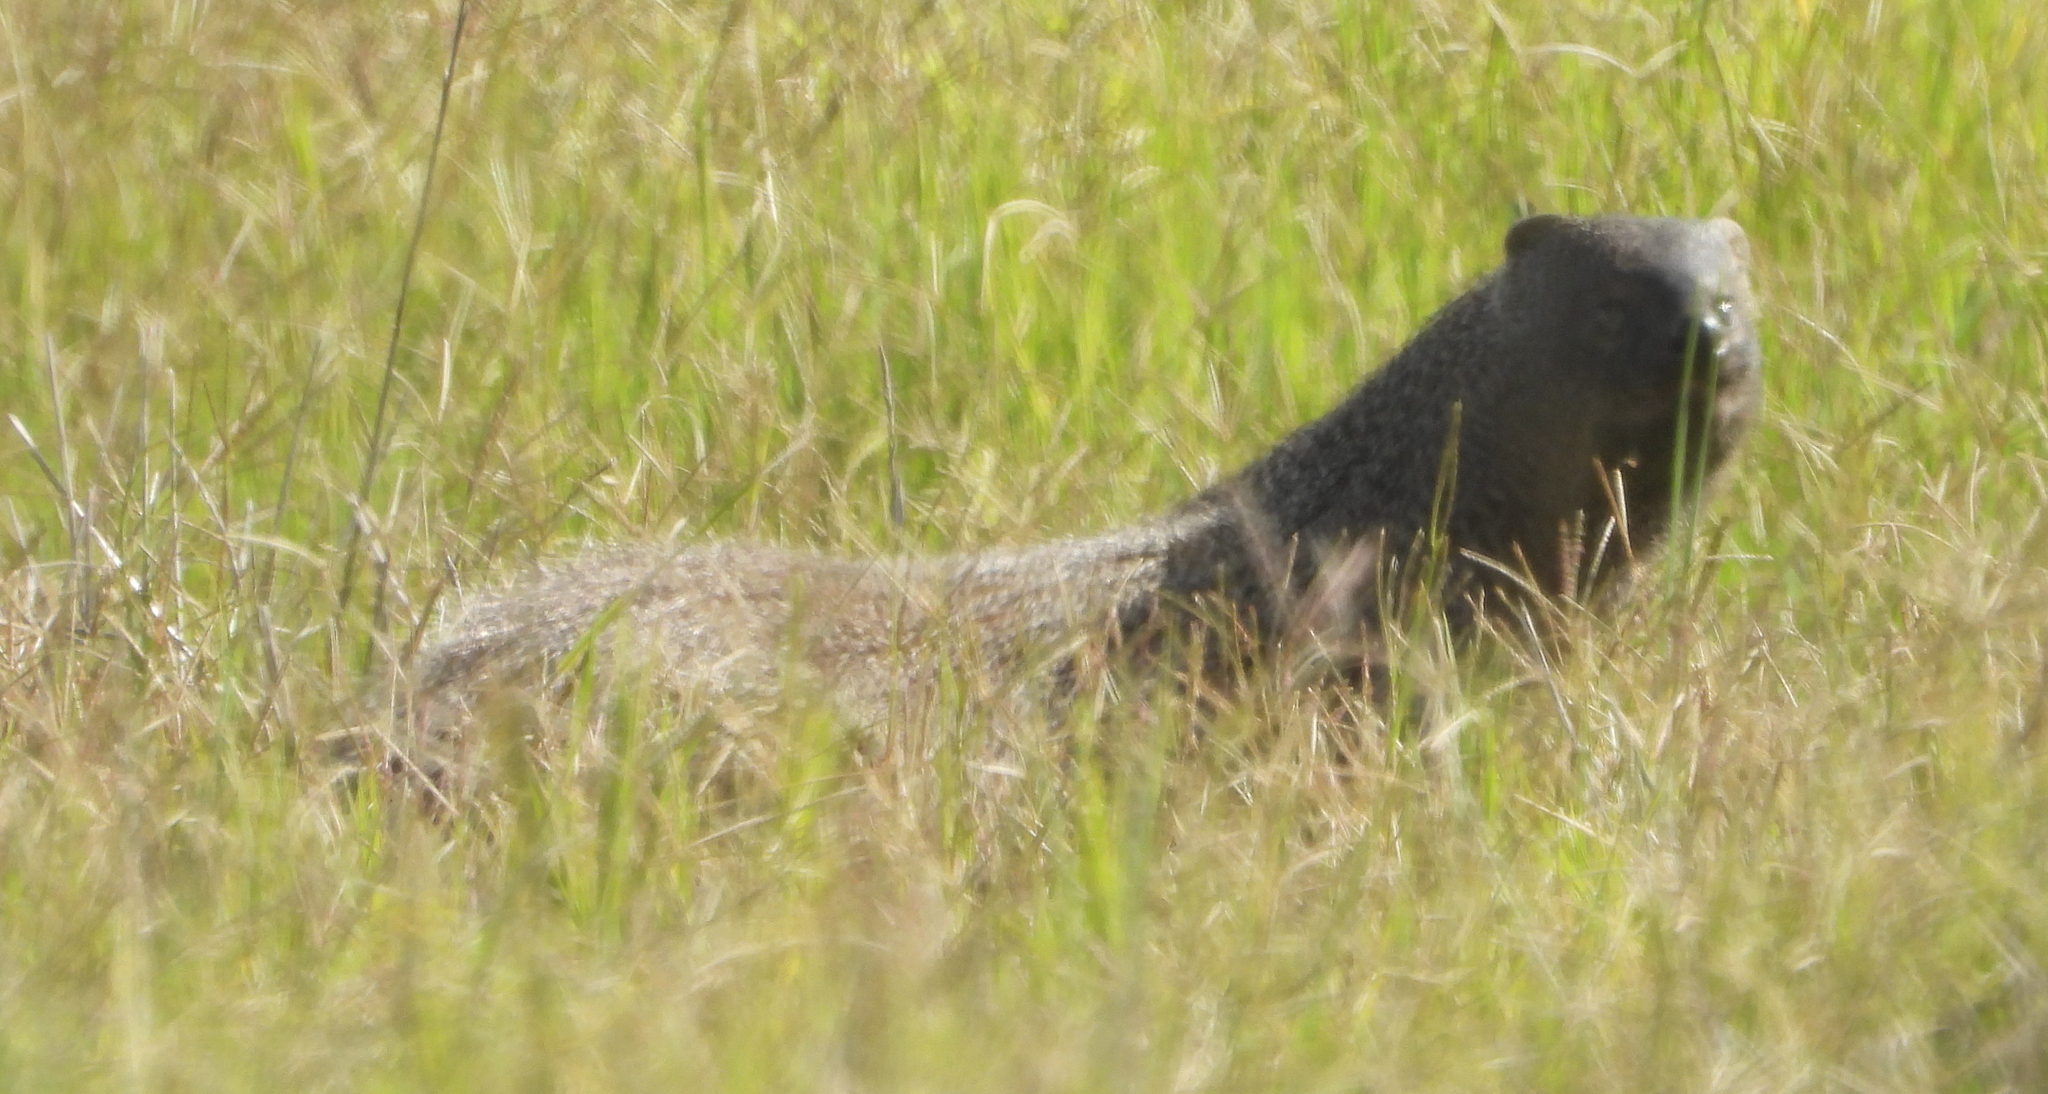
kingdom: Animalia
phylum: Chordata
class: Mammalia
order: Carnivora
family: Herpestidae
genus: Herpestes
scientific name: Herpestes ichneumon
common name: Egyptian mongoose
